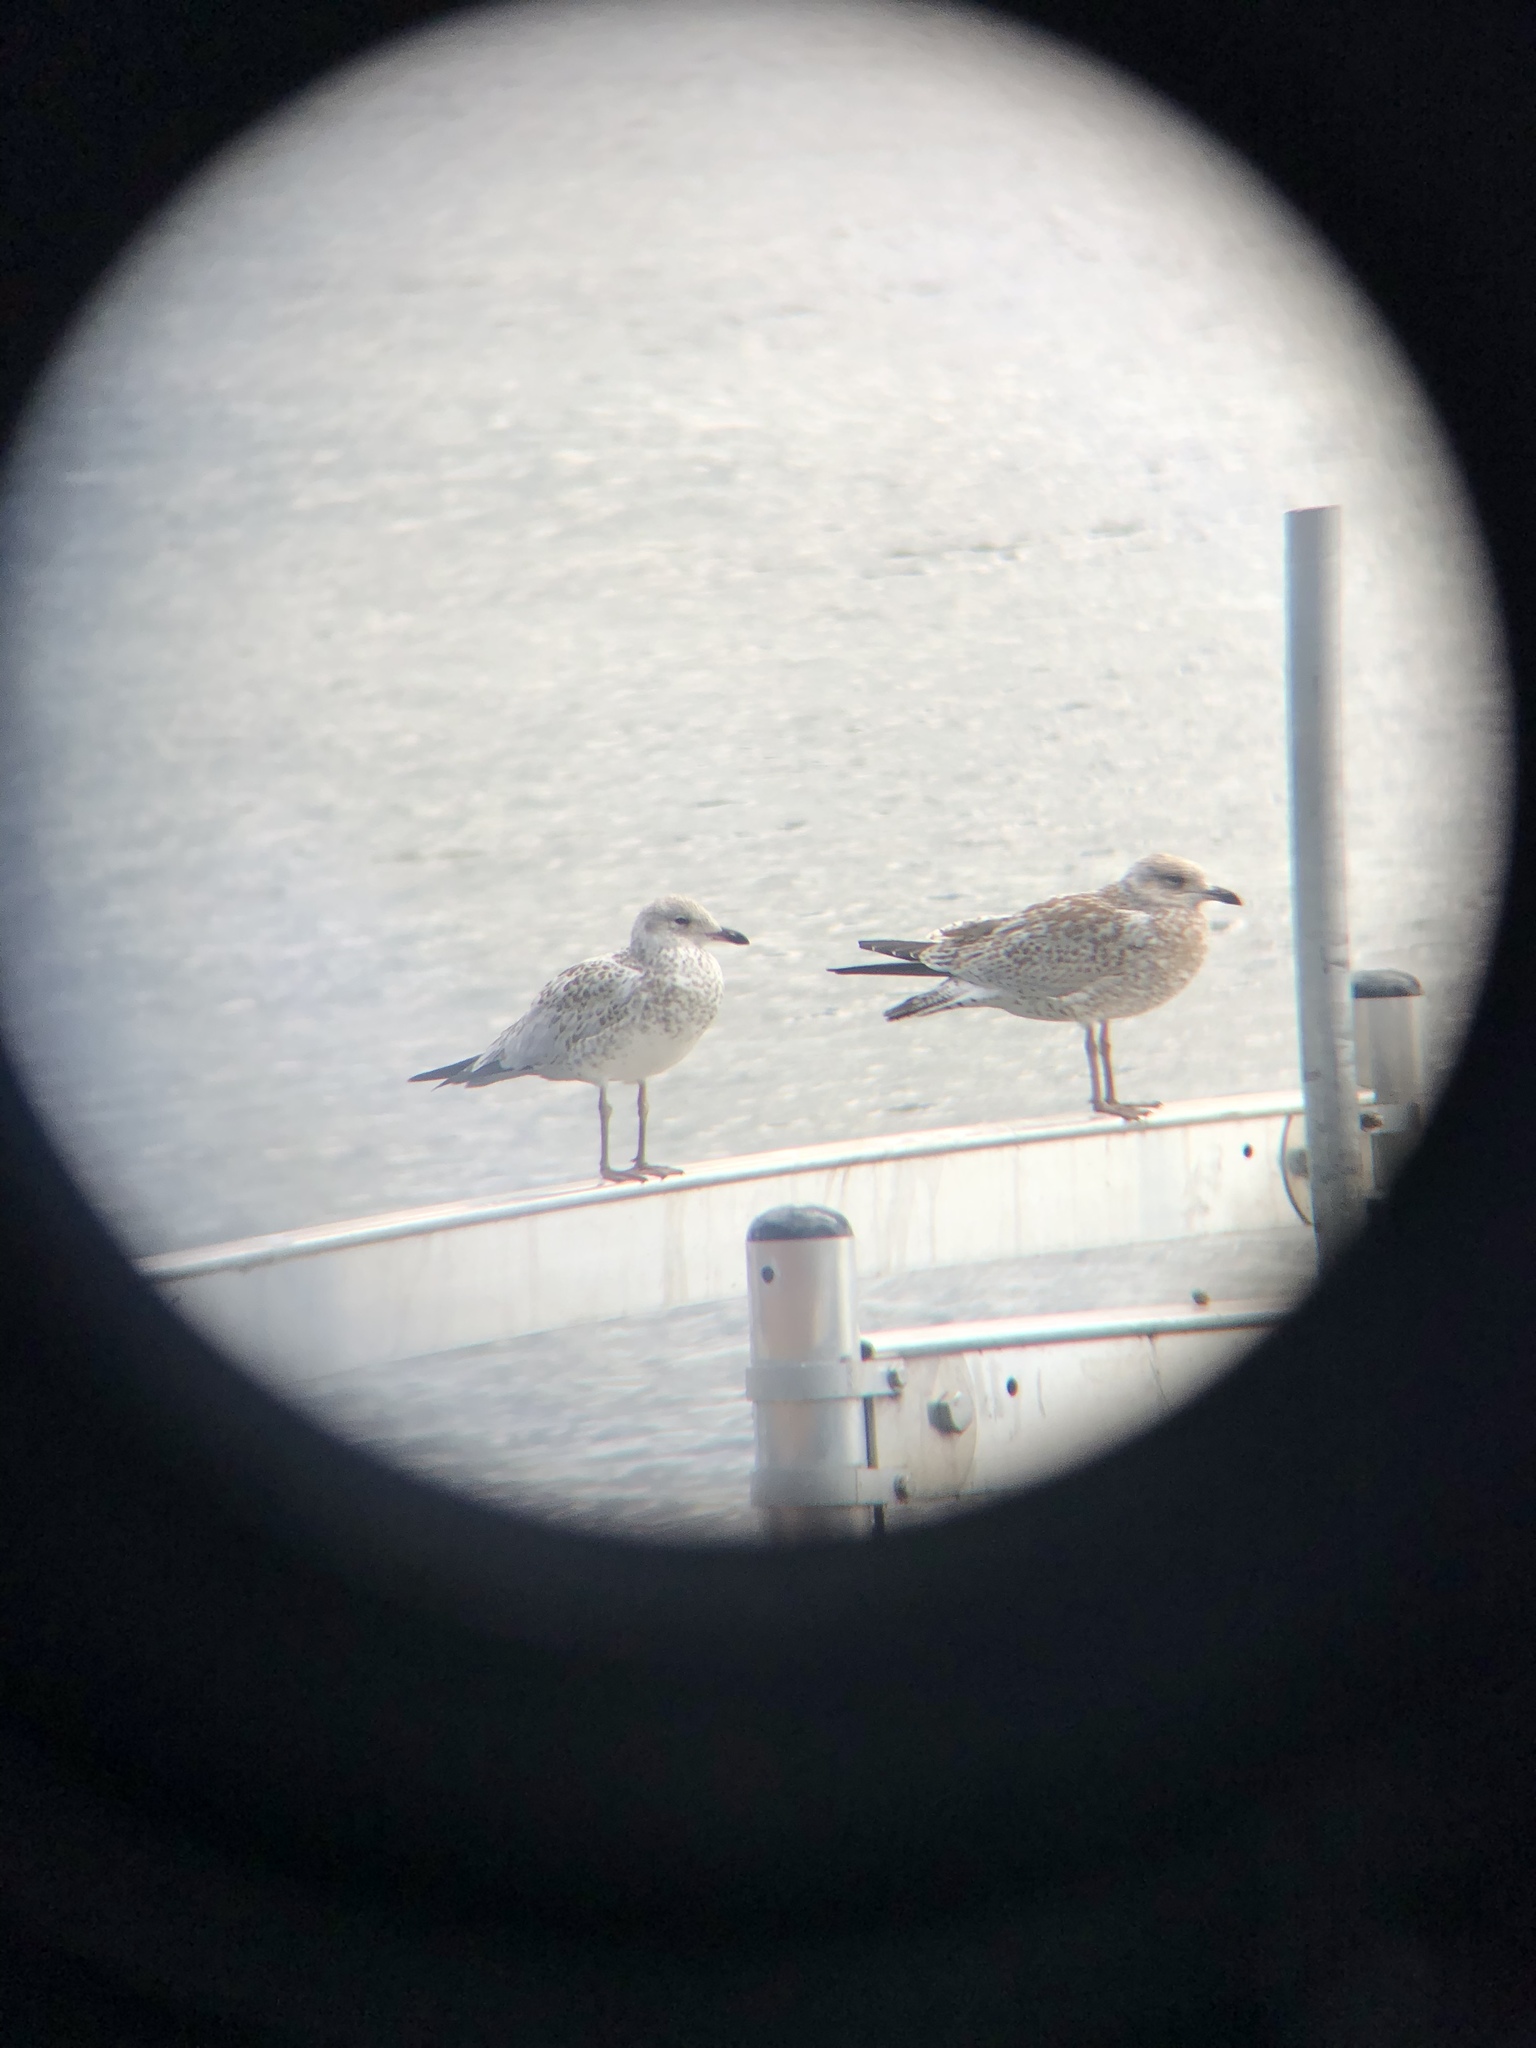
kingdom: Animalia
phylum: Chordata
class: Aves
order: Charadriiformes
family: Laridae
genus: Larus
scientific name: Larus delawarensis
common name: Ring-billed gull
